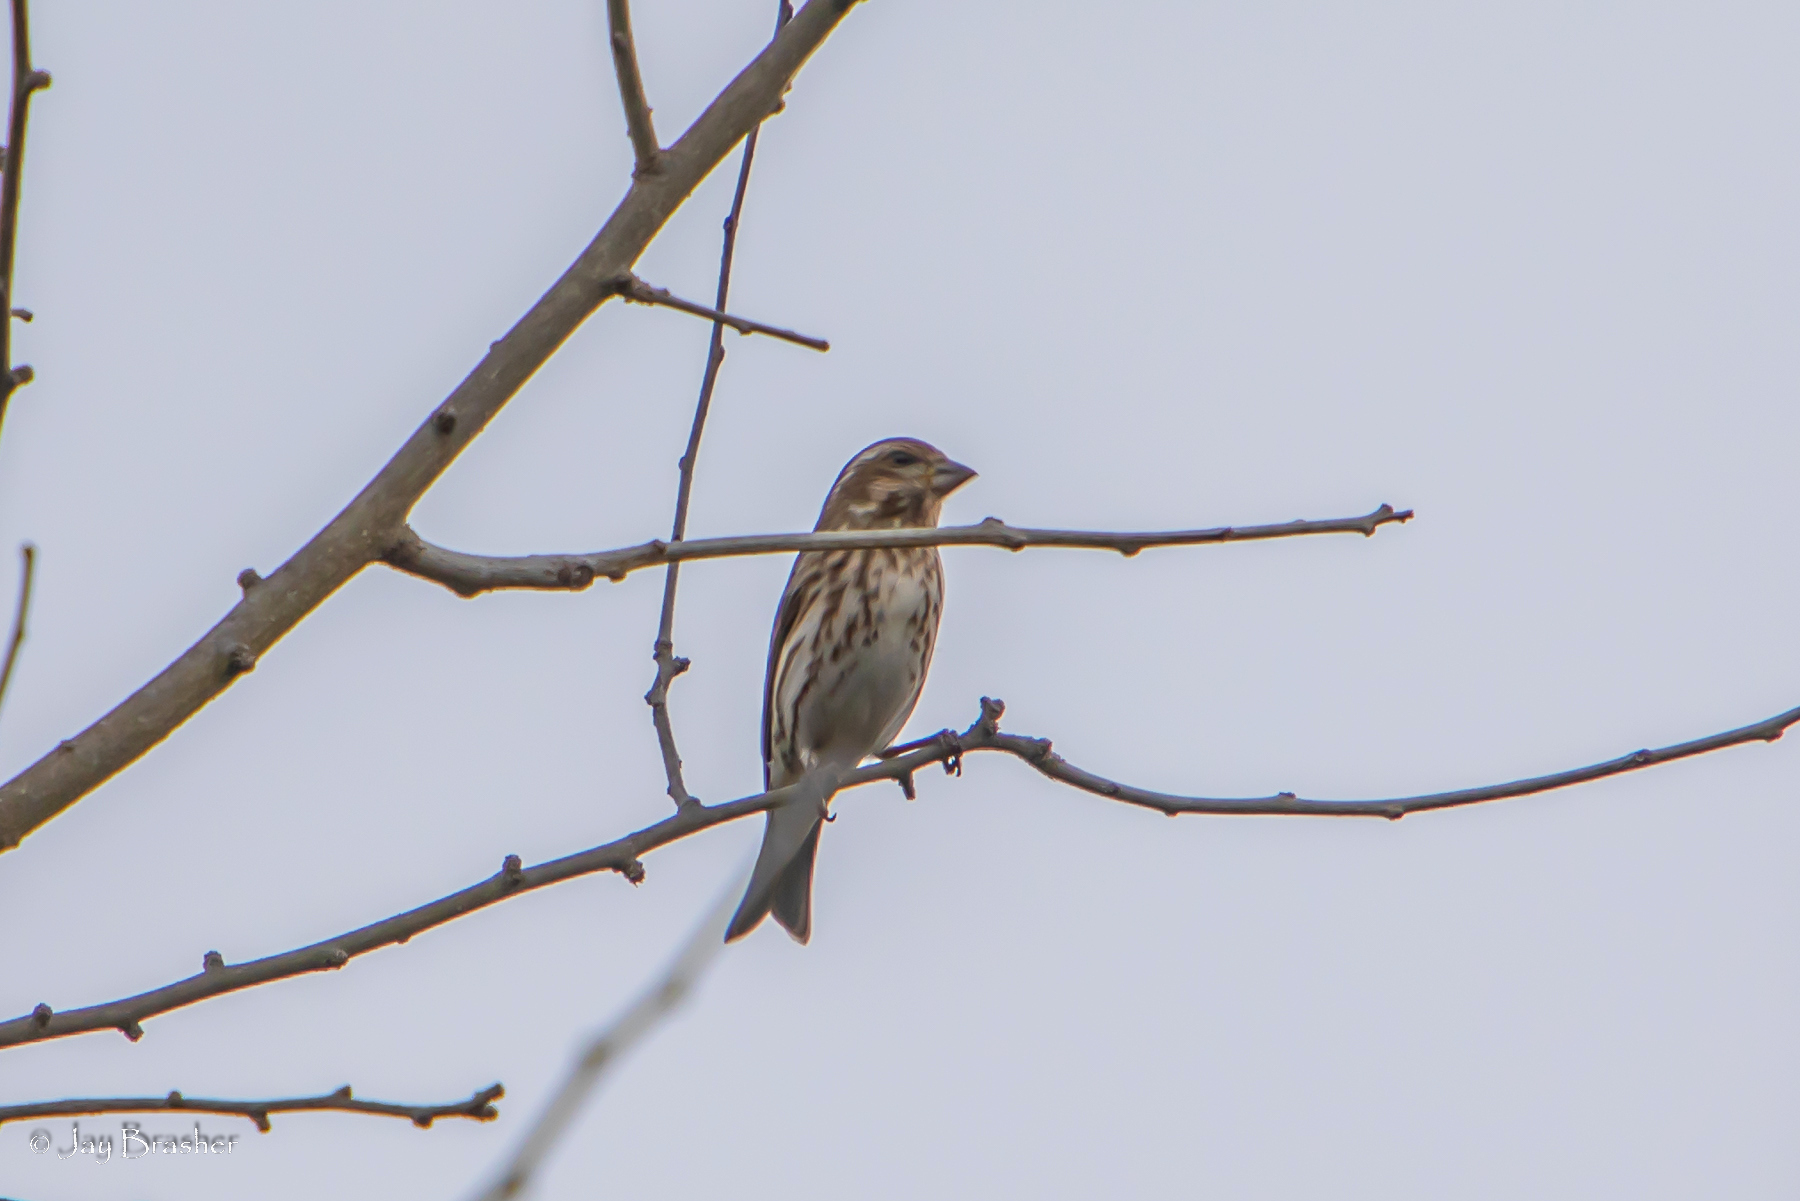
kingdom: Animalia
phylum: Chordata
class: Aves
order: Passeriformes
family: Fringillidae
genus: Haemorhous
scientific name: Haemorhous purpureus
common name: Purple finch
